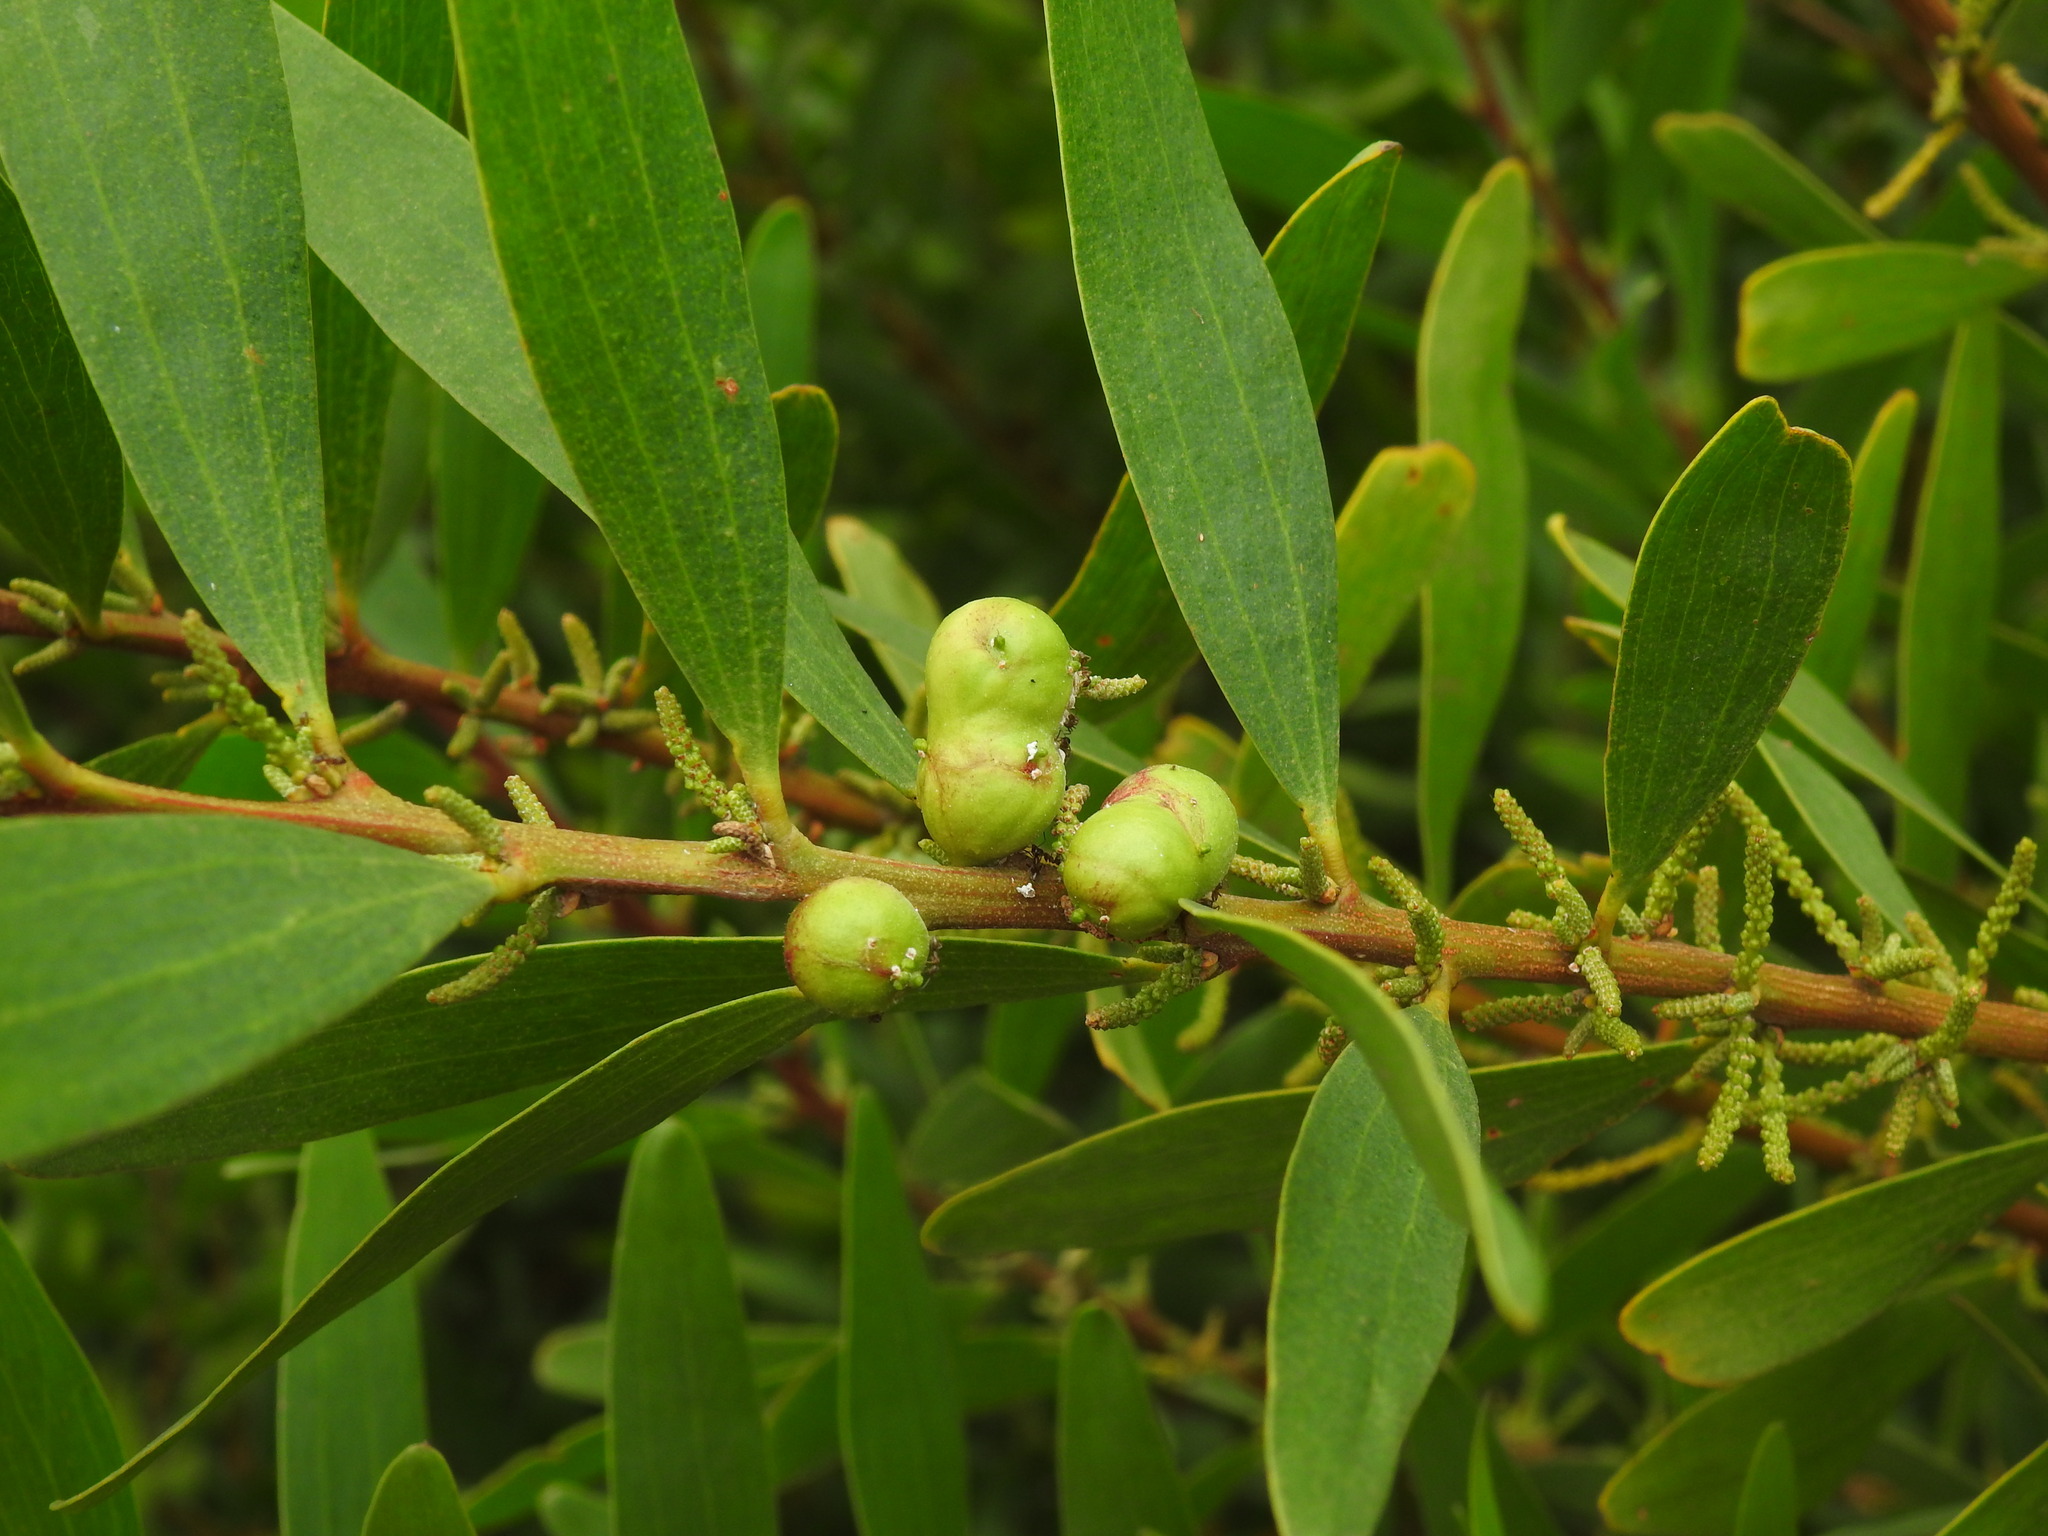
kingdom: Animalia
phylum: Arthropoda
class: Insecta
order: Hymenoptera
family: Pteromalidae
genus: Trichilogaster
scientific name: Trichilogaster acaciaelongifoliae
